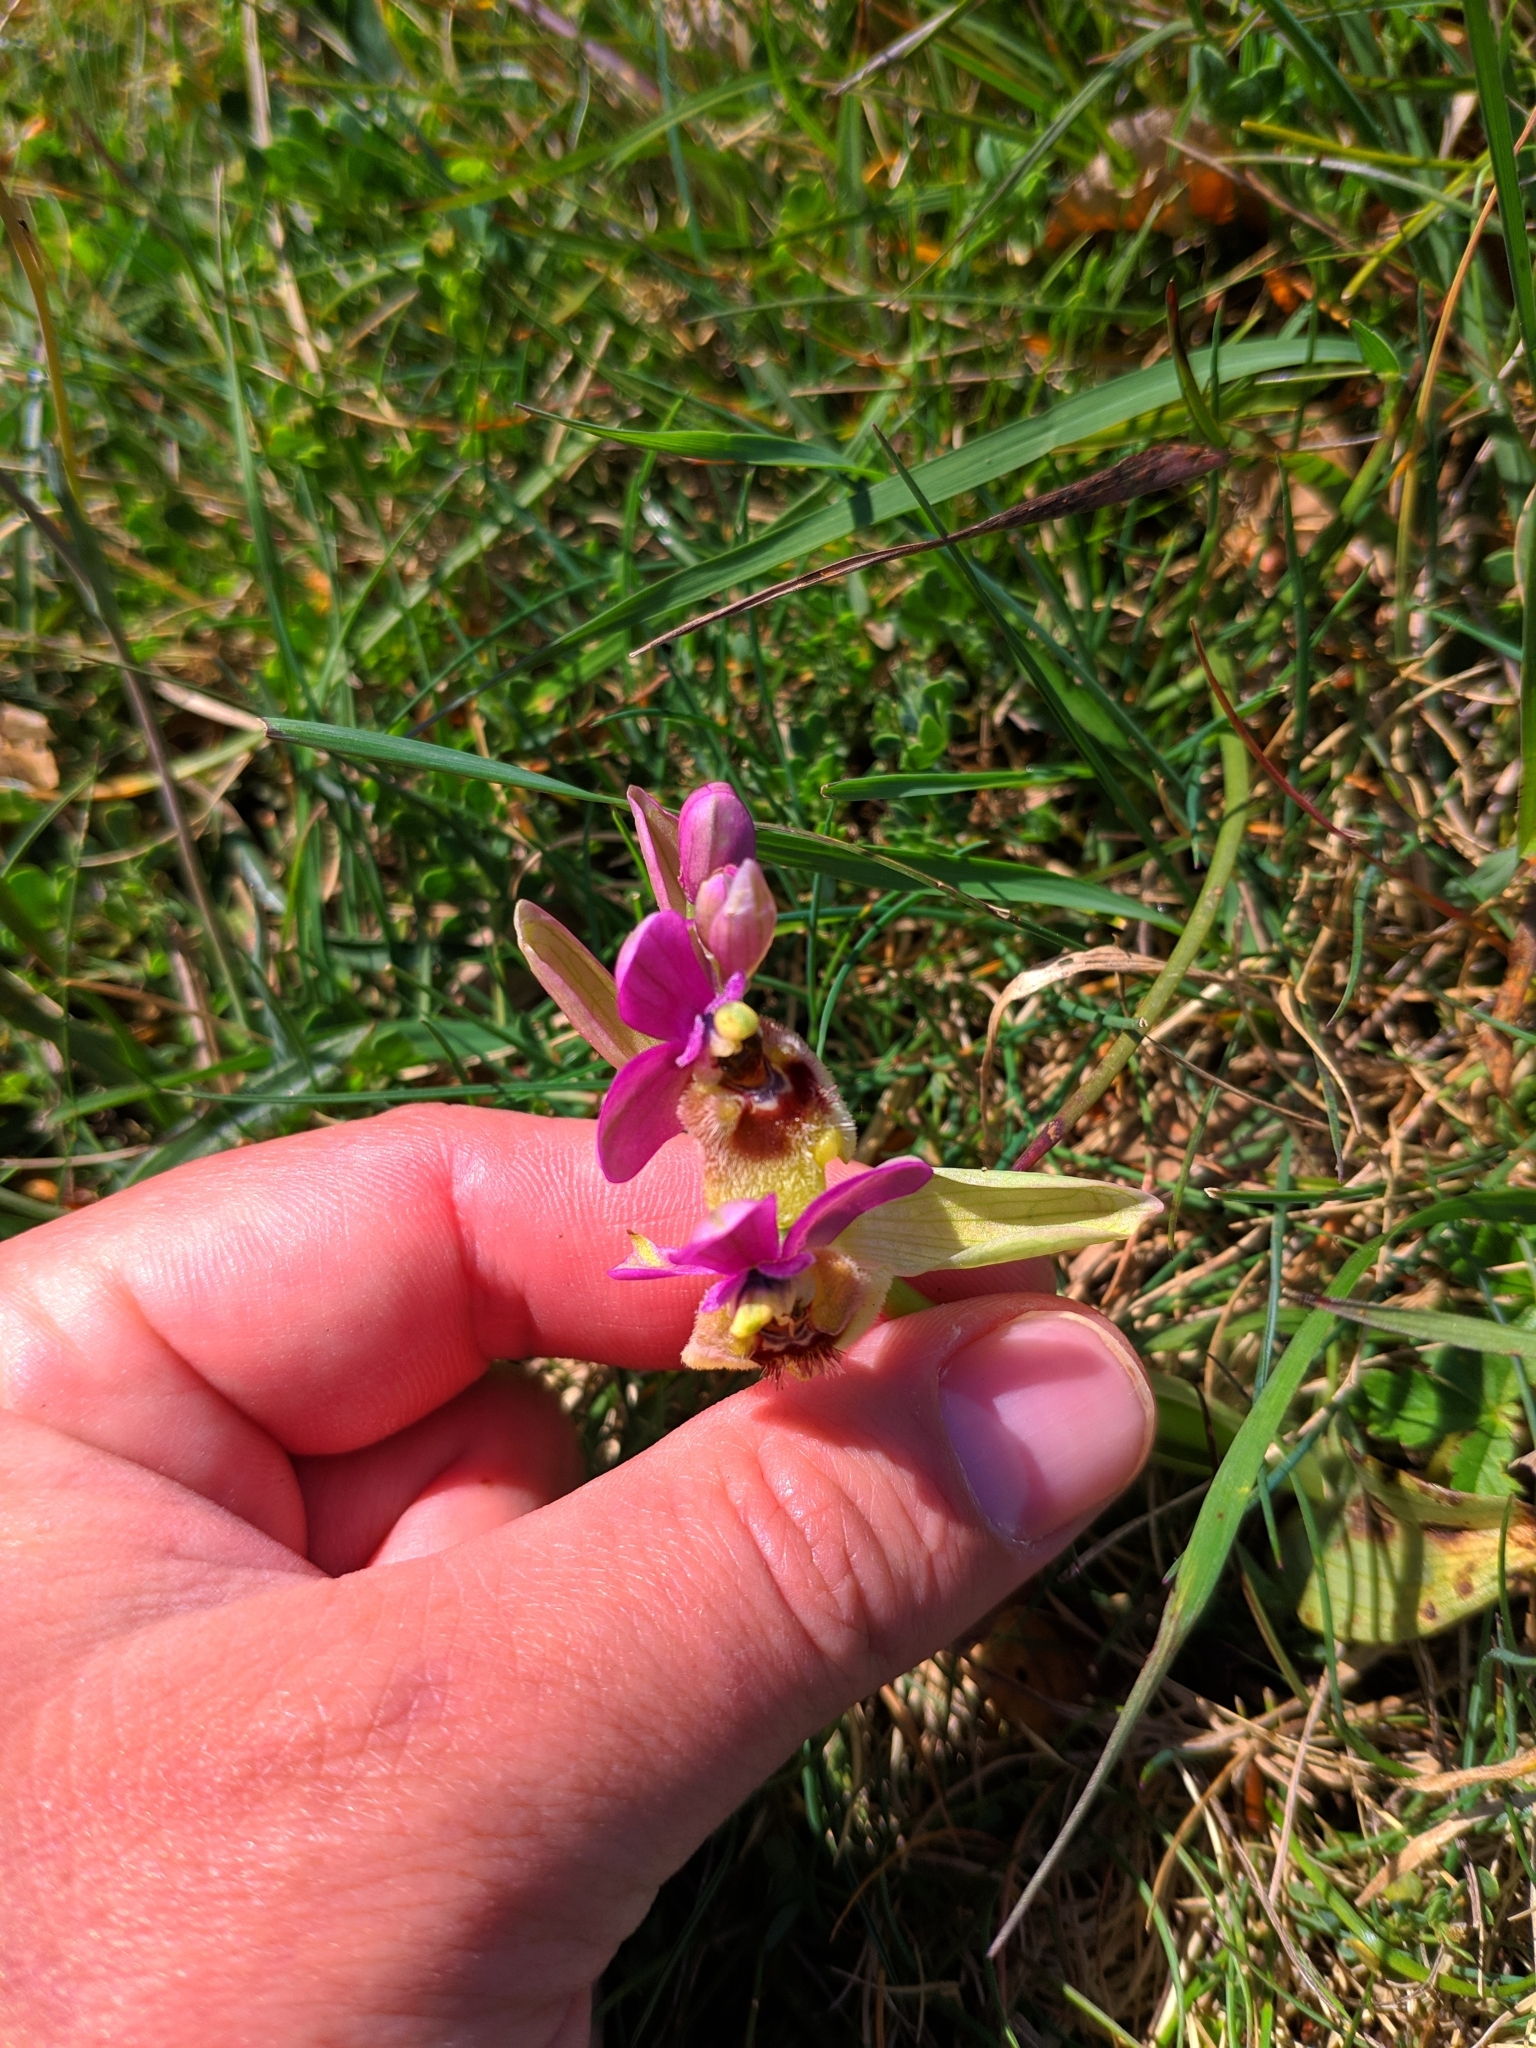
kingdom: Plantae
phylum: Tracheophyta
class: Liliopsida
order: Asparagales
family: Orchidaceae
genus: Ophrys
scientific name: Ophrys tenthredinifera
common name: Sawfly orchid
